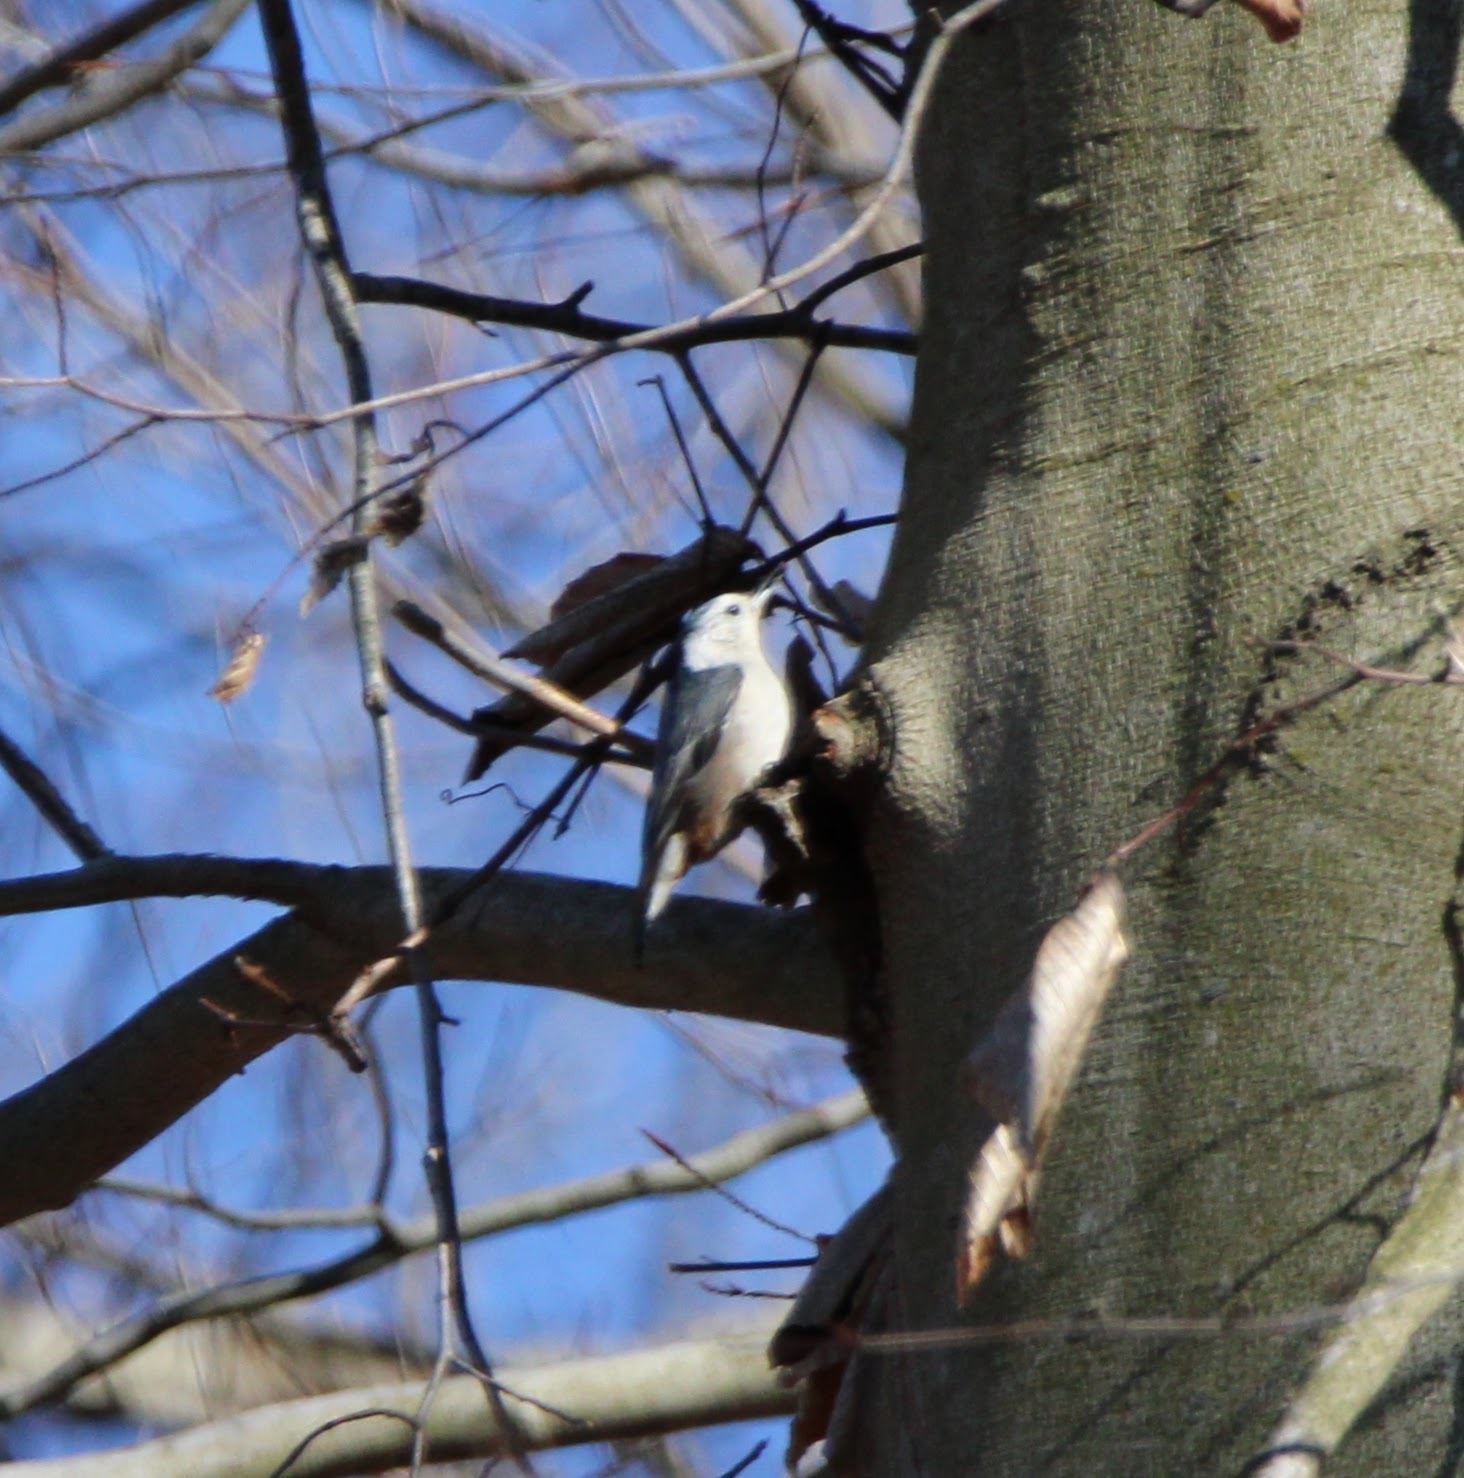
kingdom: Animalia
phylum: Chordata
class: Aves
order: Passeriformes
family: Sittidae
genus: Sitta
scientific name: Sitta carolinensis
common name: White-breasted nuthatch
